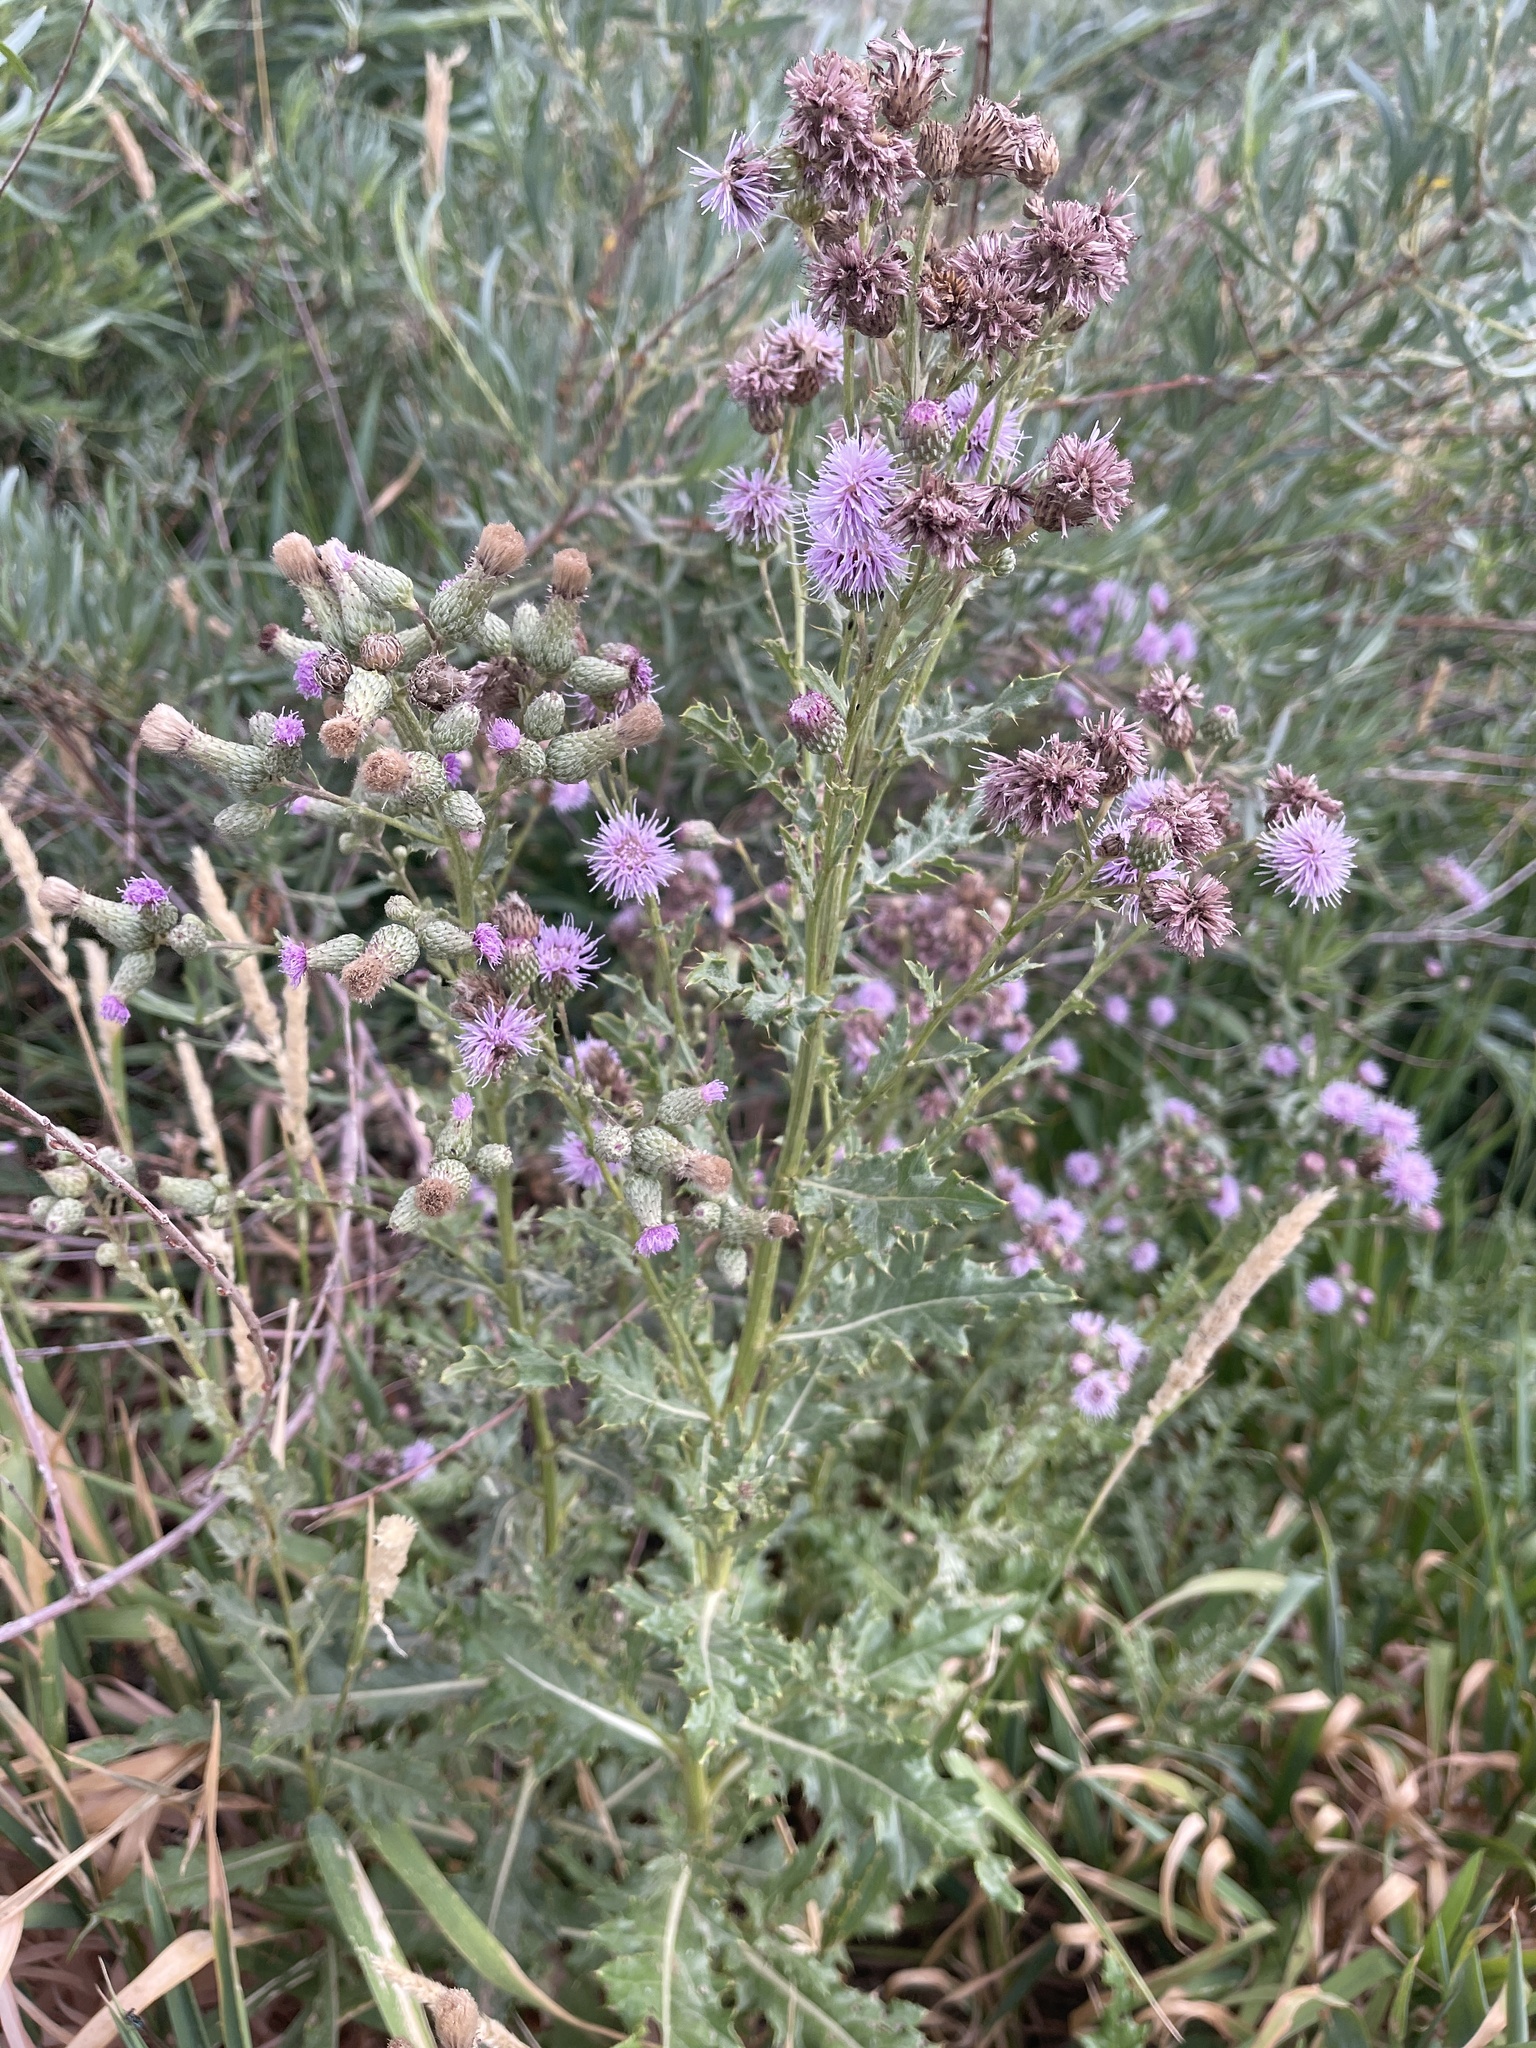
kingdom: Plantae
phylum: Tracheophyta
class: Magnoliopsida
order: Asterales
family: Asteraceae
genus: Cirsium
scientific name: Cirsium arvense
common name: Creeping thistle
